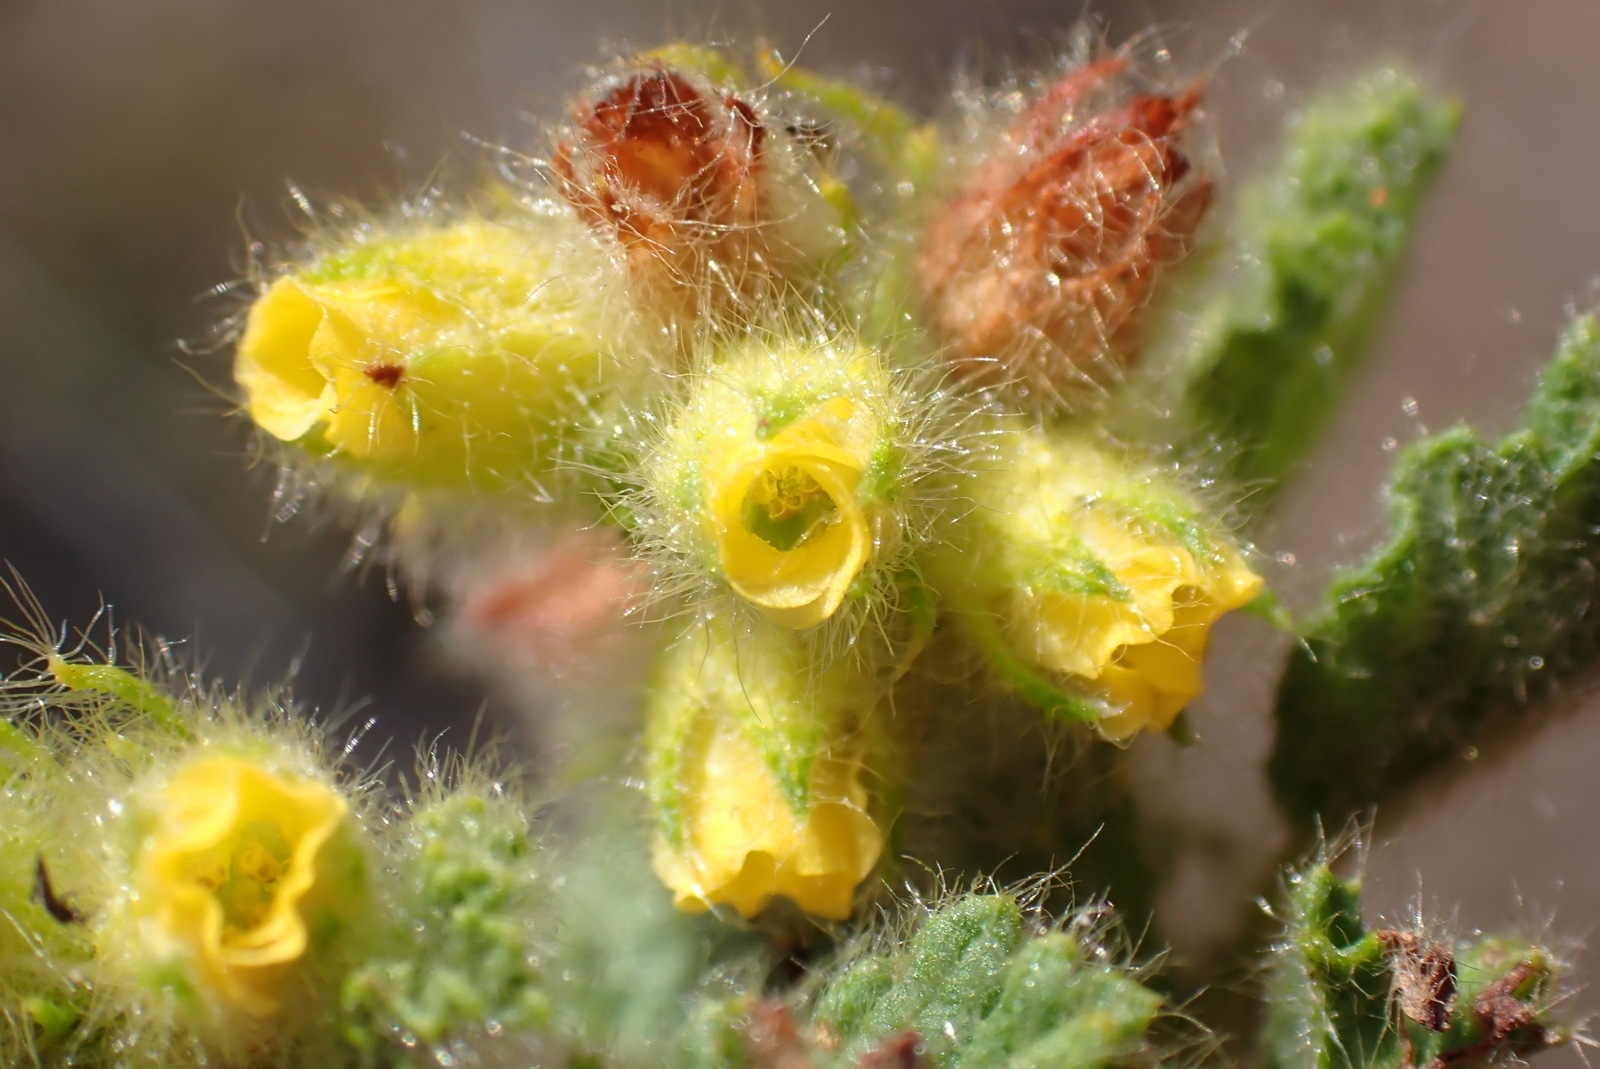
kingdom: Plantae
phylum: Tracheophyta
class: Magnoliopsida
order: Malvales
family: Malvaceae
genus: Hermannia
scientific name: Hermannia conglomerata
